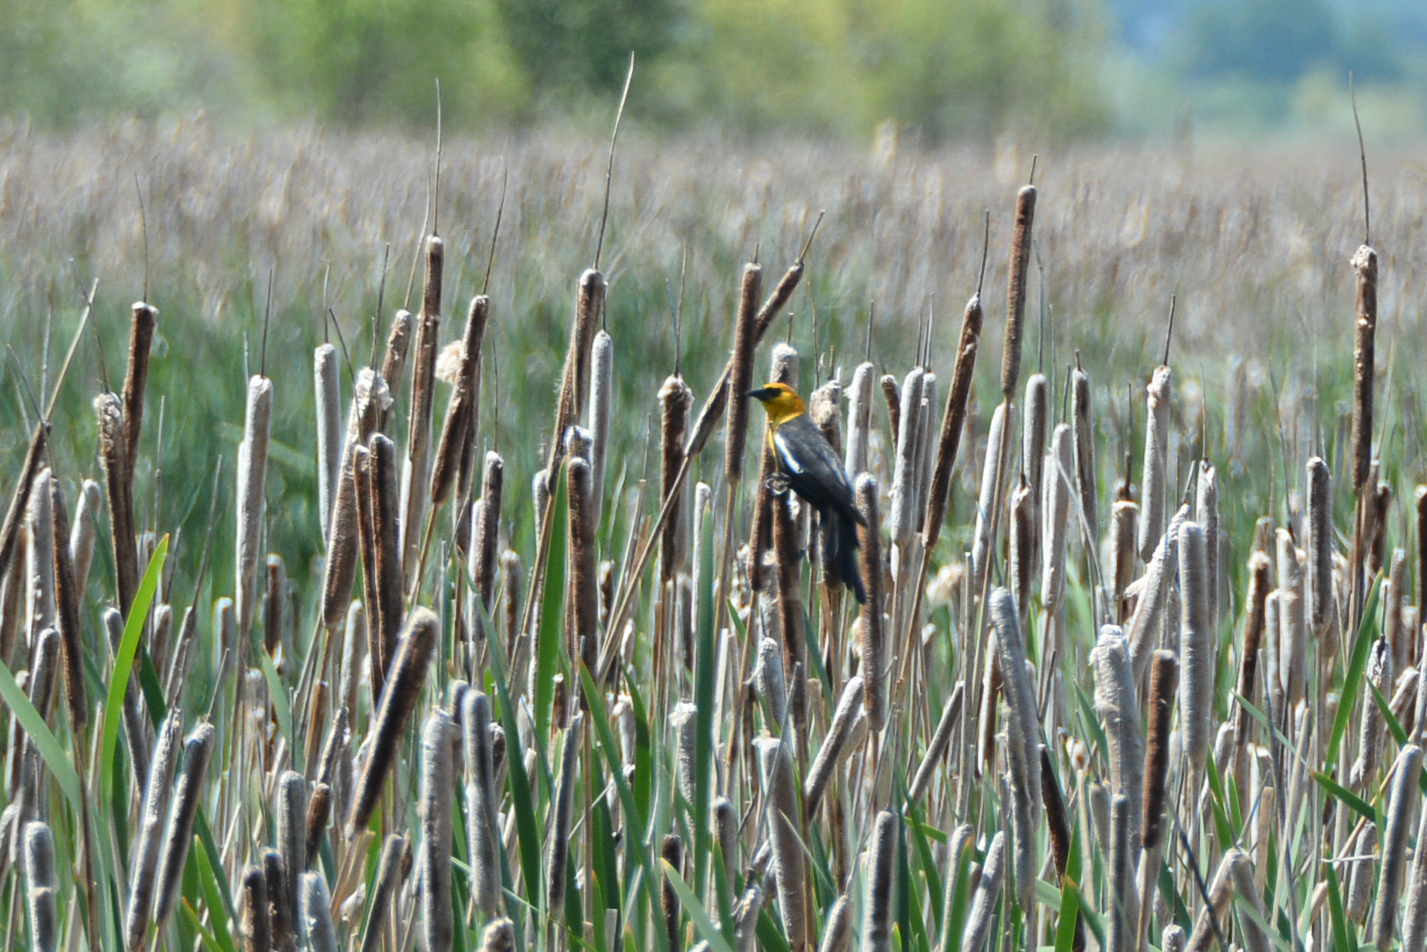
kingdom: Animalia
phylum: Chordata
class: Aves
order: Passeriformes
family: Icteridae
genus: Xanthocephalus
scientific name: Xanthocephalus xanthocephalus
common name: Yellow-headed blackbird
